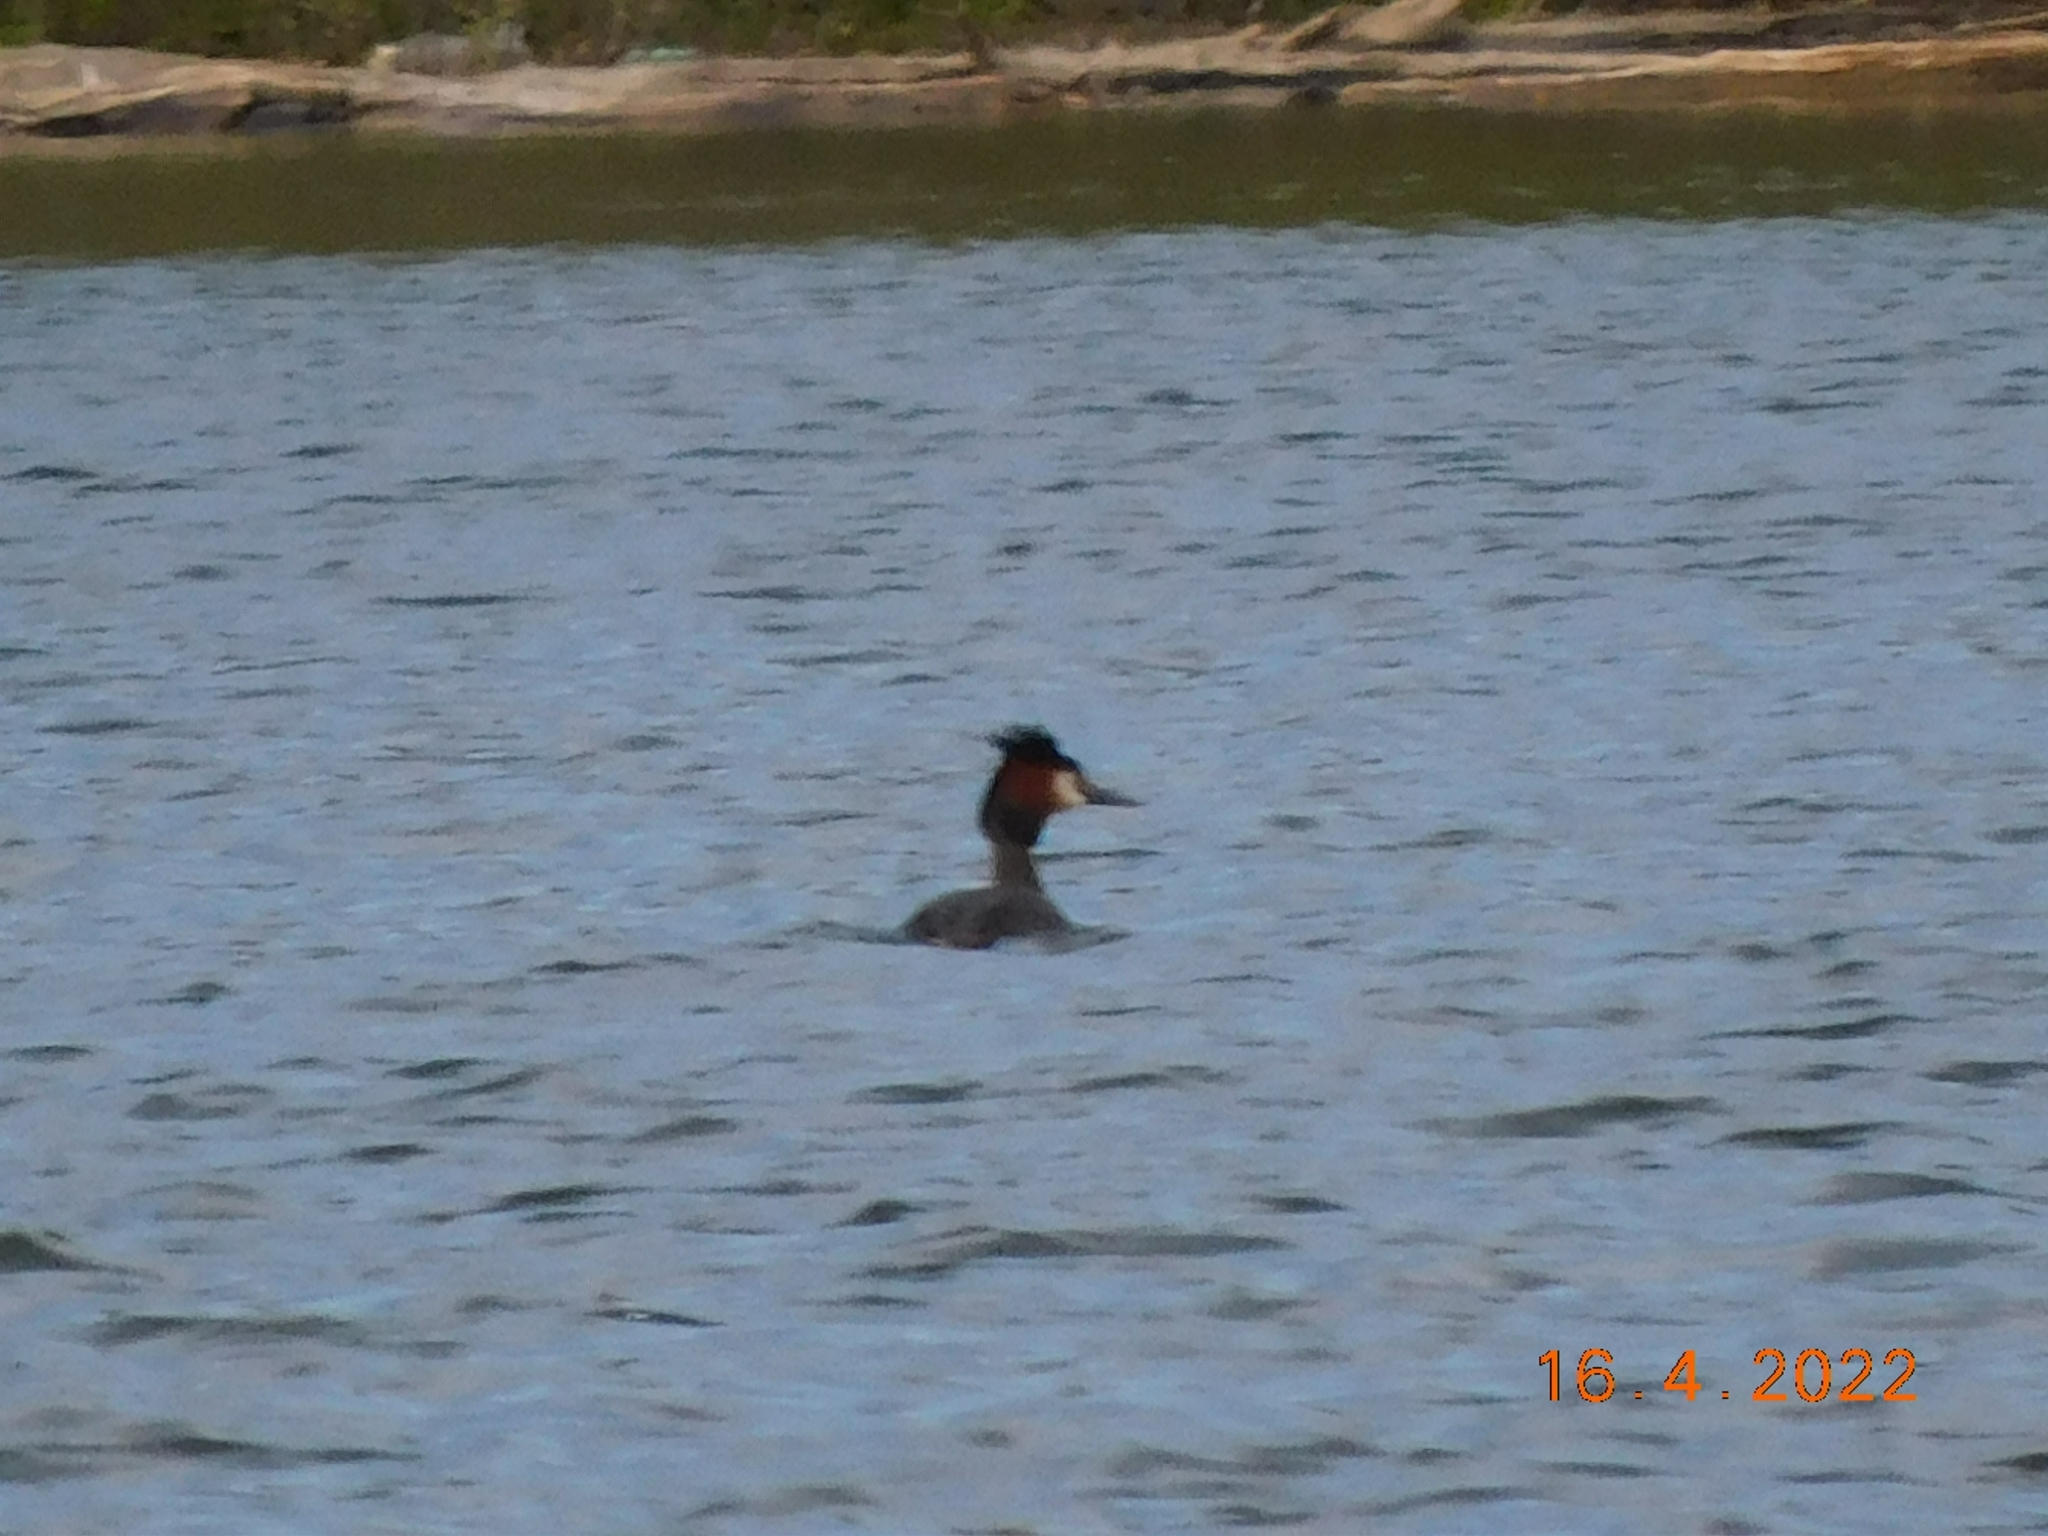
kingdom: Animalia
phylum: Chordata
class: Aves
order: Podicipediformes
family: Podicipedidae
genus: Podiceps
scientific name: Podiceps cristatus
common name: Great crested grebe
